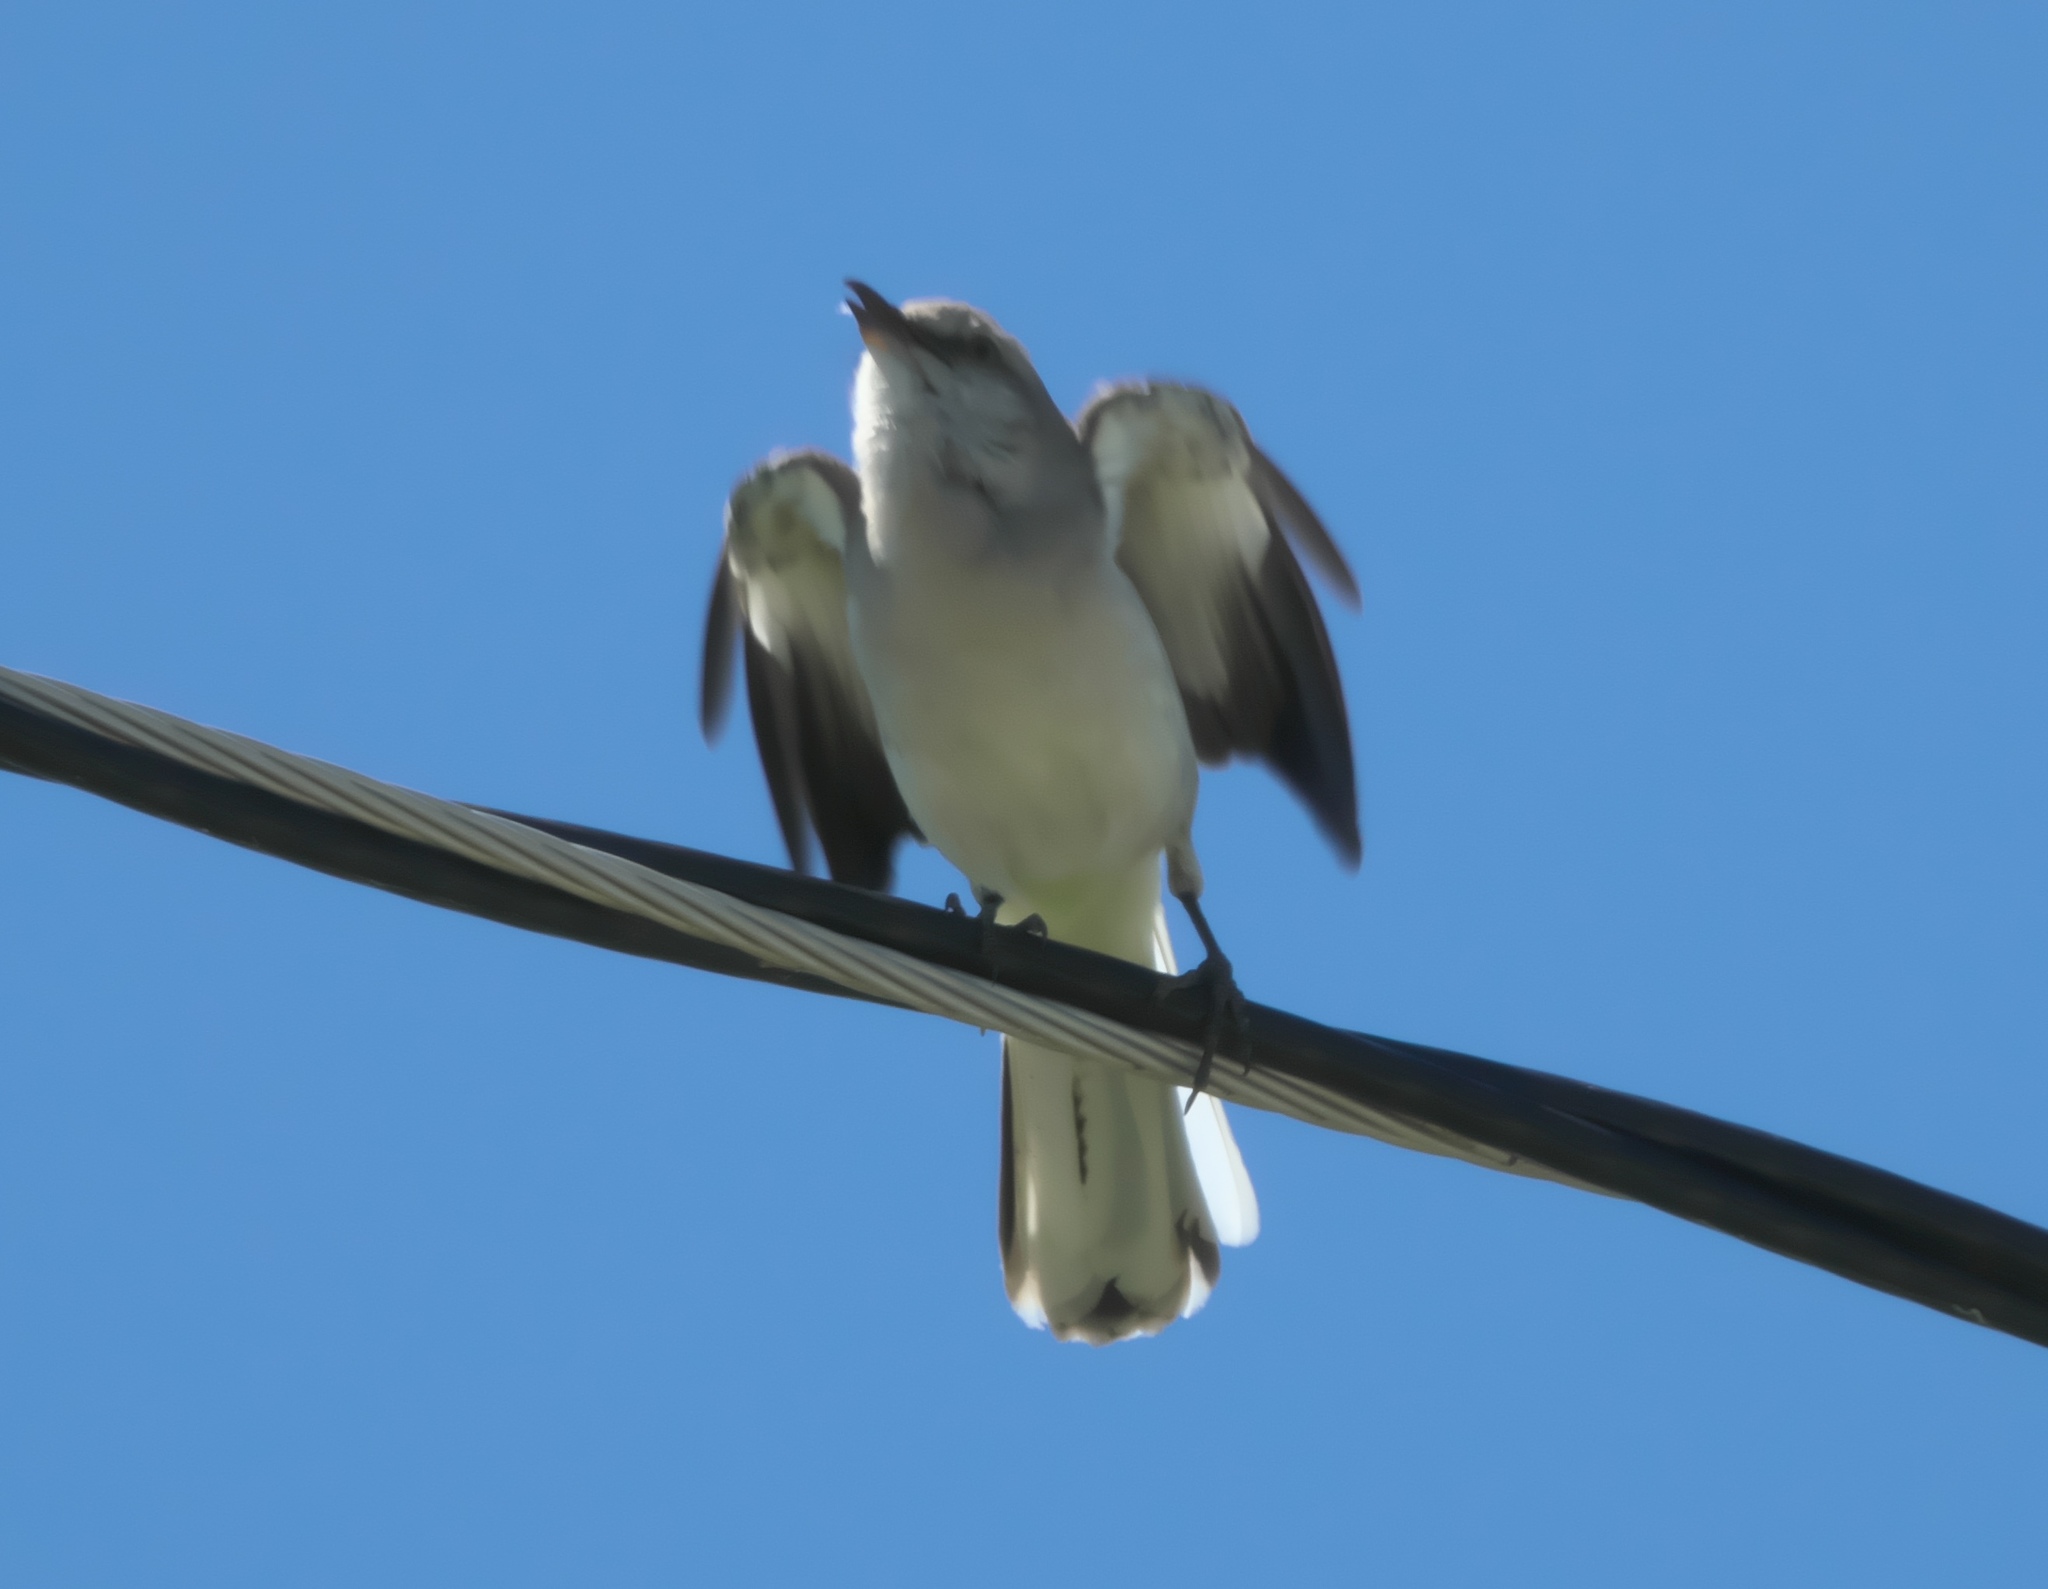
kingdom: Animalia
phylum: Chordata
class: Aves
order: Passeriformes
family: Mimidae
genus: Mimus
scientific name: Mimus polyglottos
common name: Northern mockingbird
